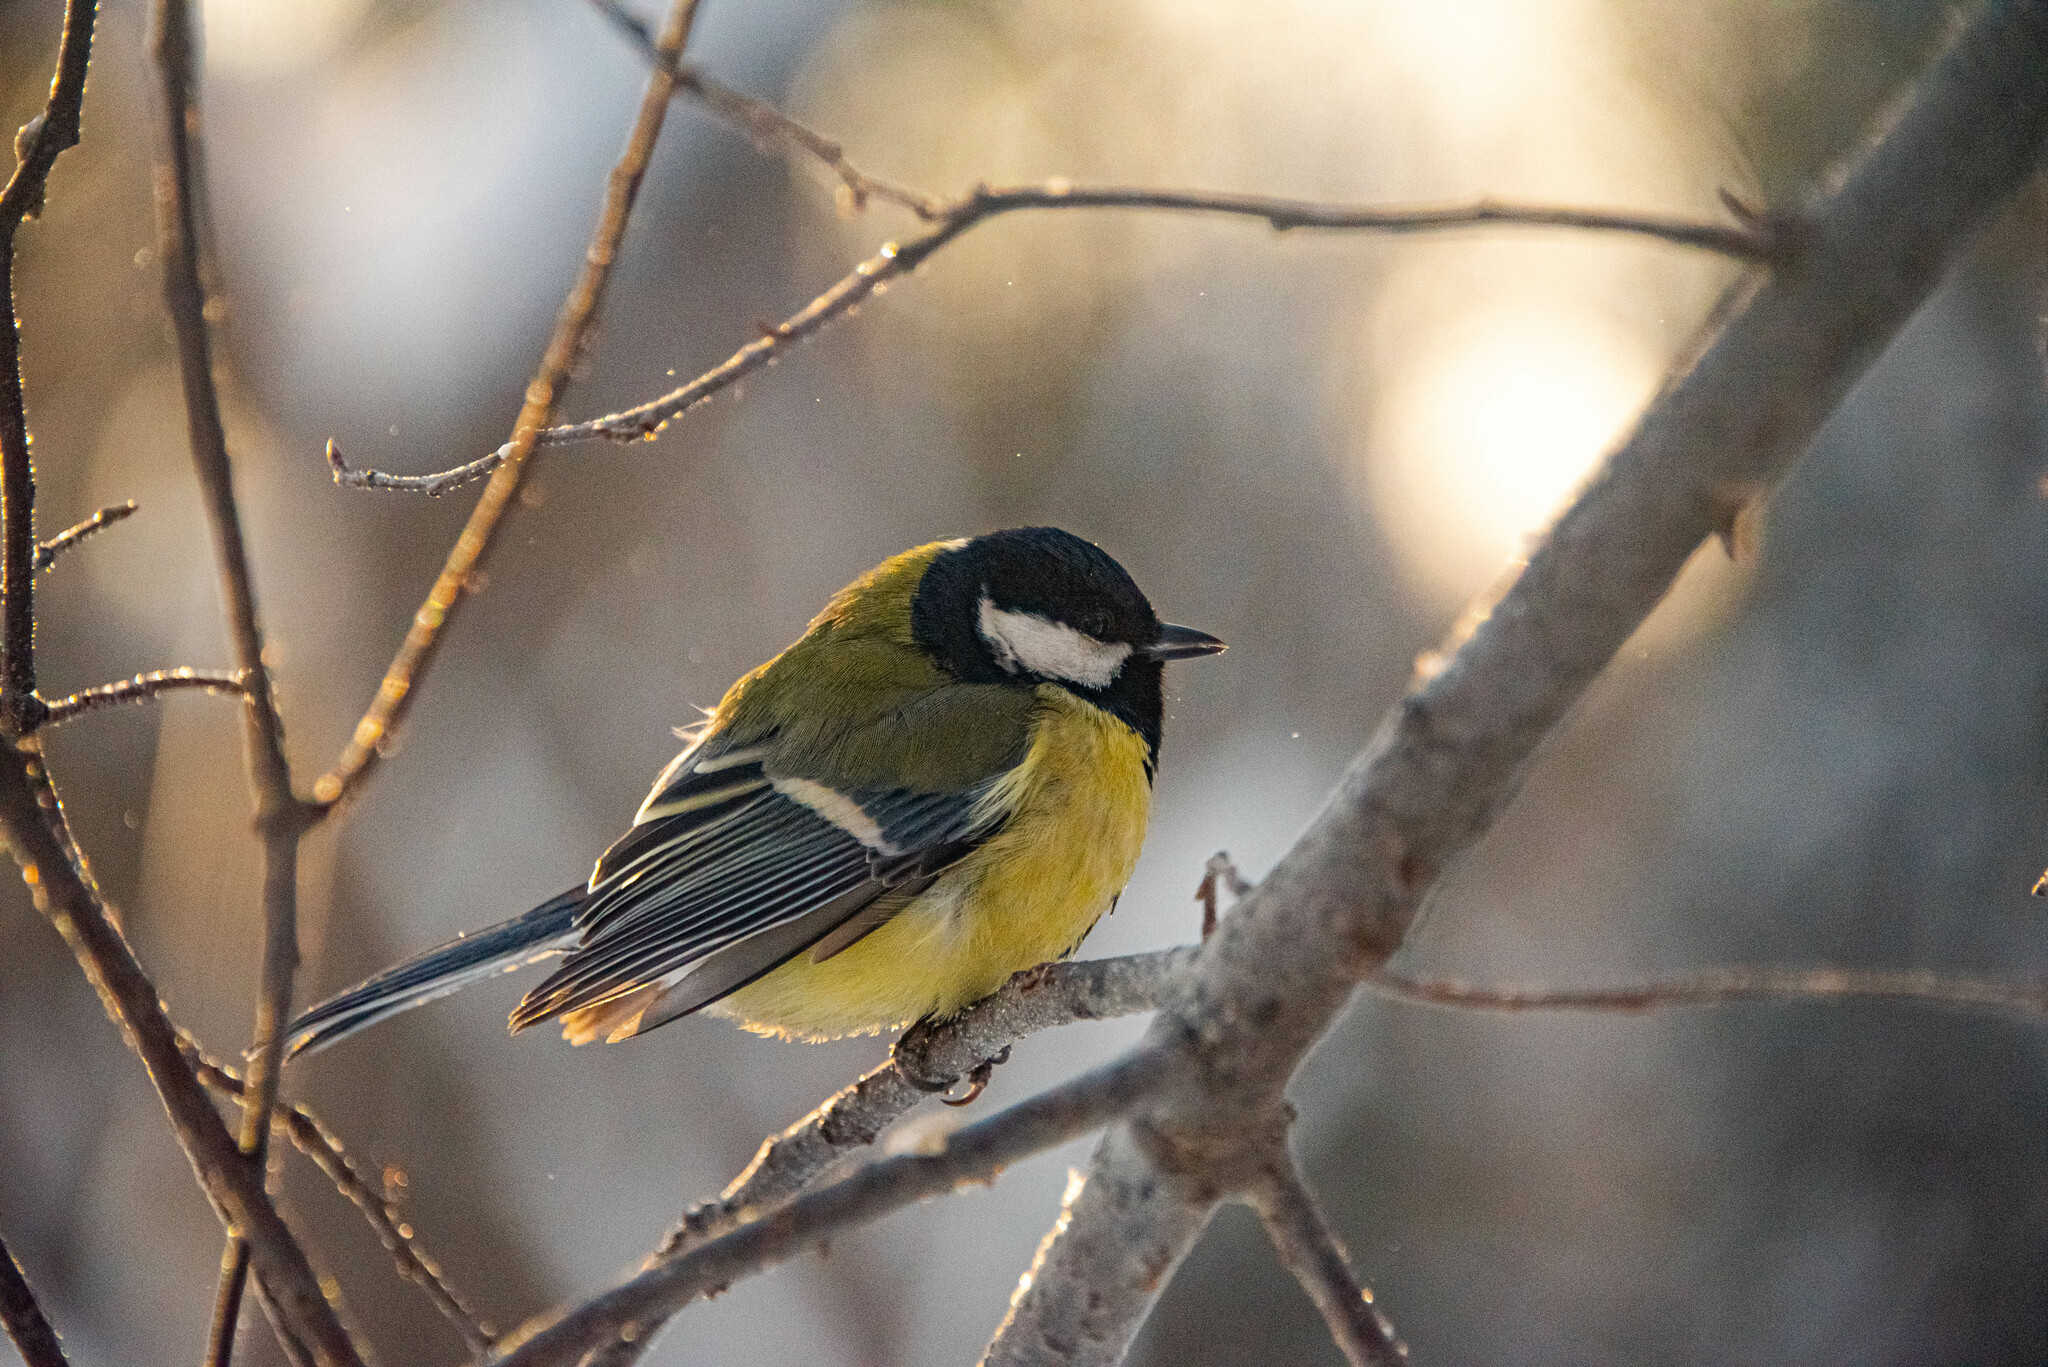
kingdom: Animalia
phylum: Chordata
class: Aves
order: Passeriformes
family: Paridae
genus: Parus
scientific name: Parus major
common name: Great tit
